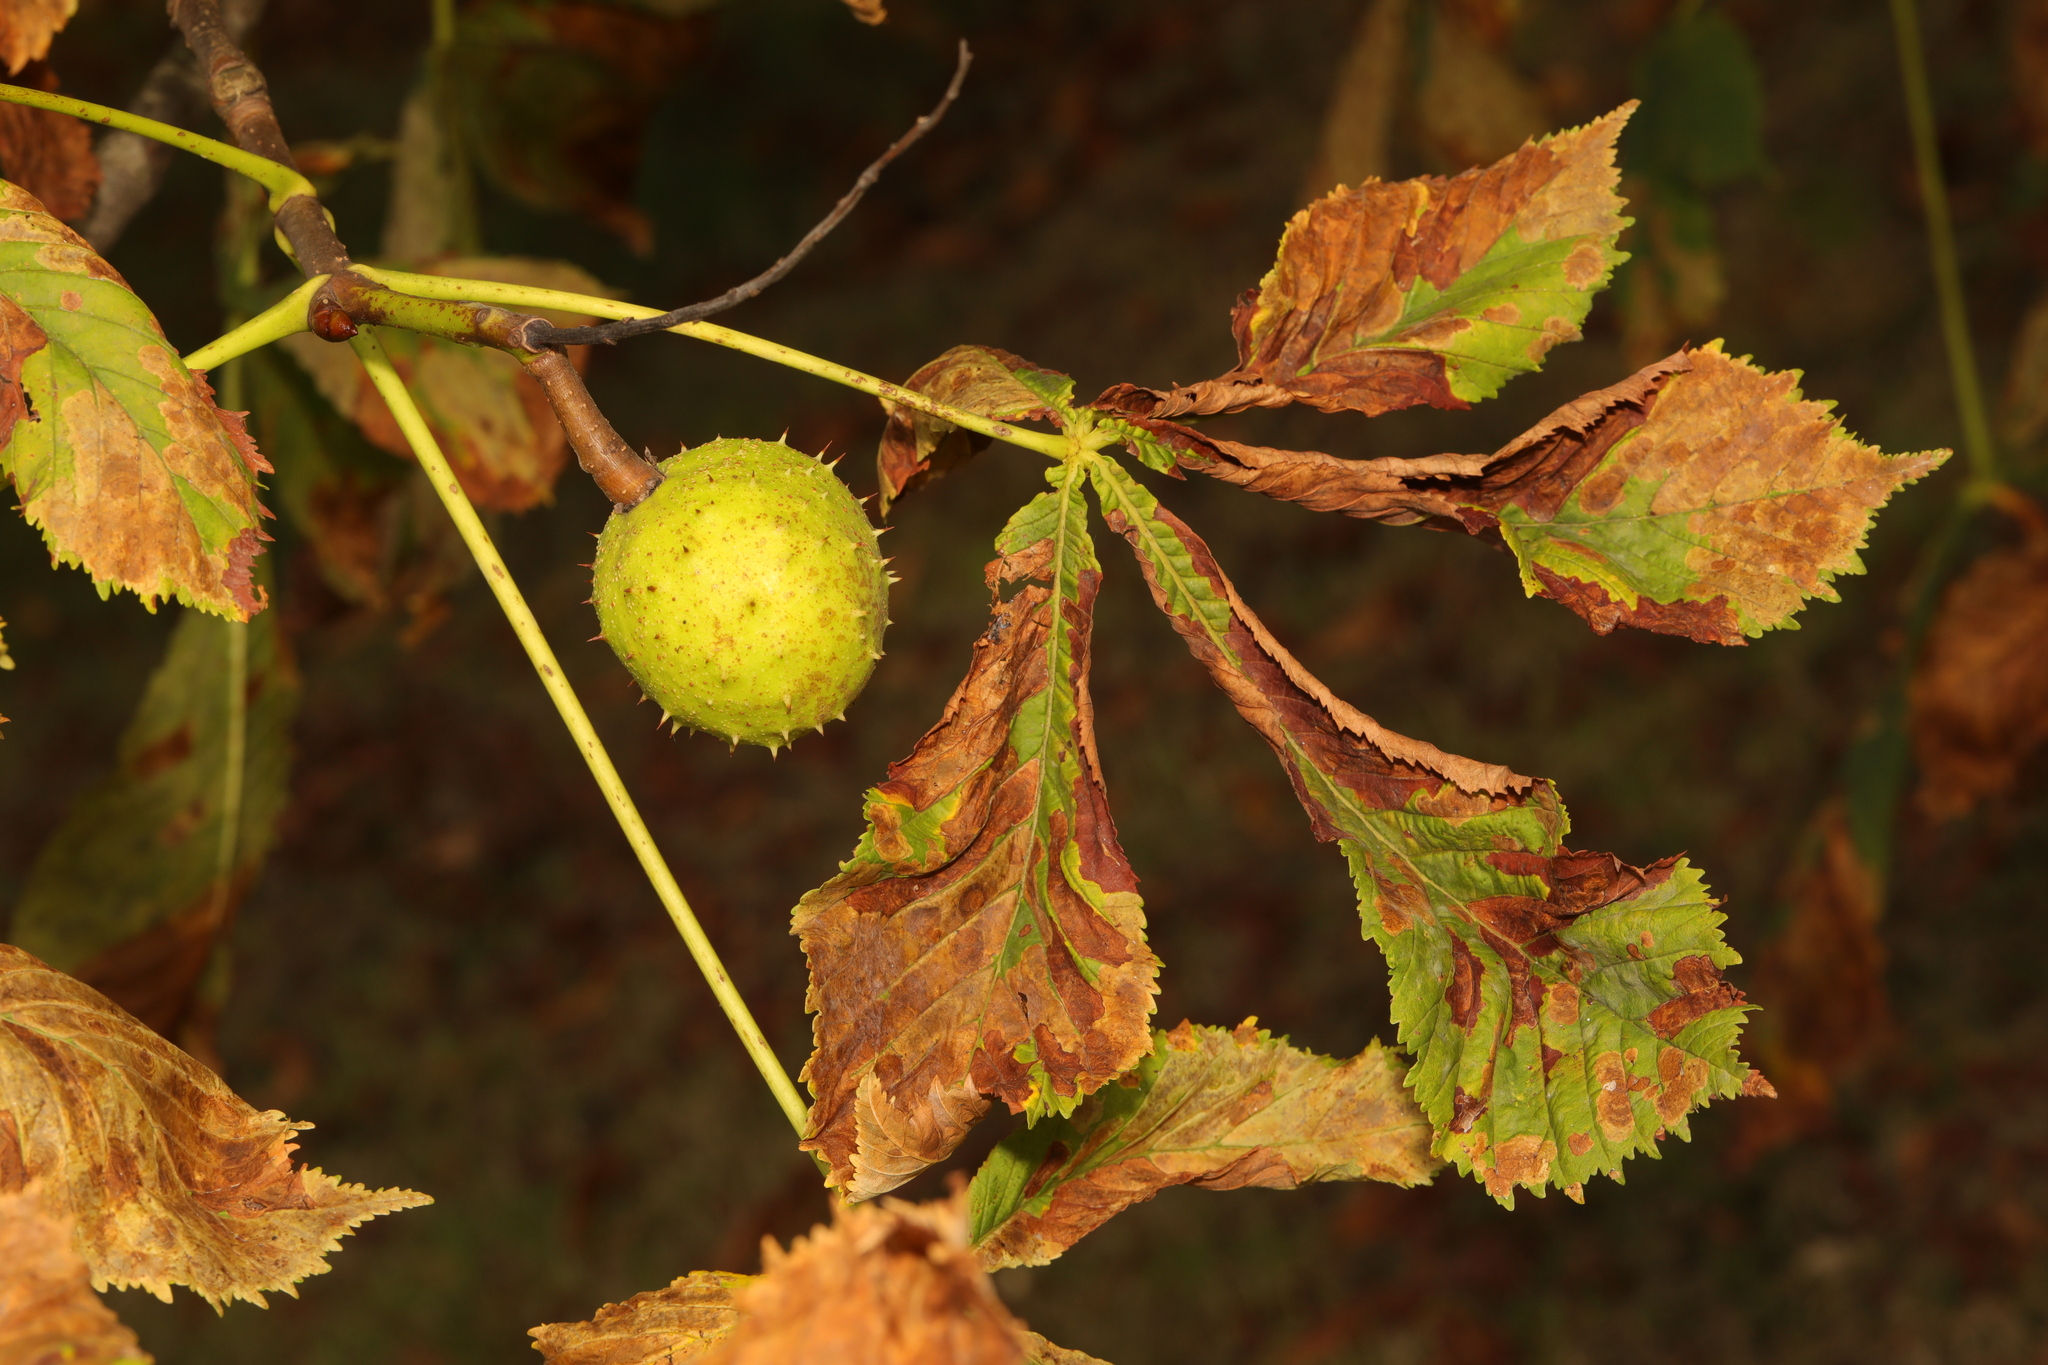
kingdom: Plantae
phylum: Tracheophyta
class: Magnoliopsida
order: Sapindales
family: Sapindaceae
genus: Aesculus
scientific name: Aesculus hippocastanum
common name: Horse-chestnut
